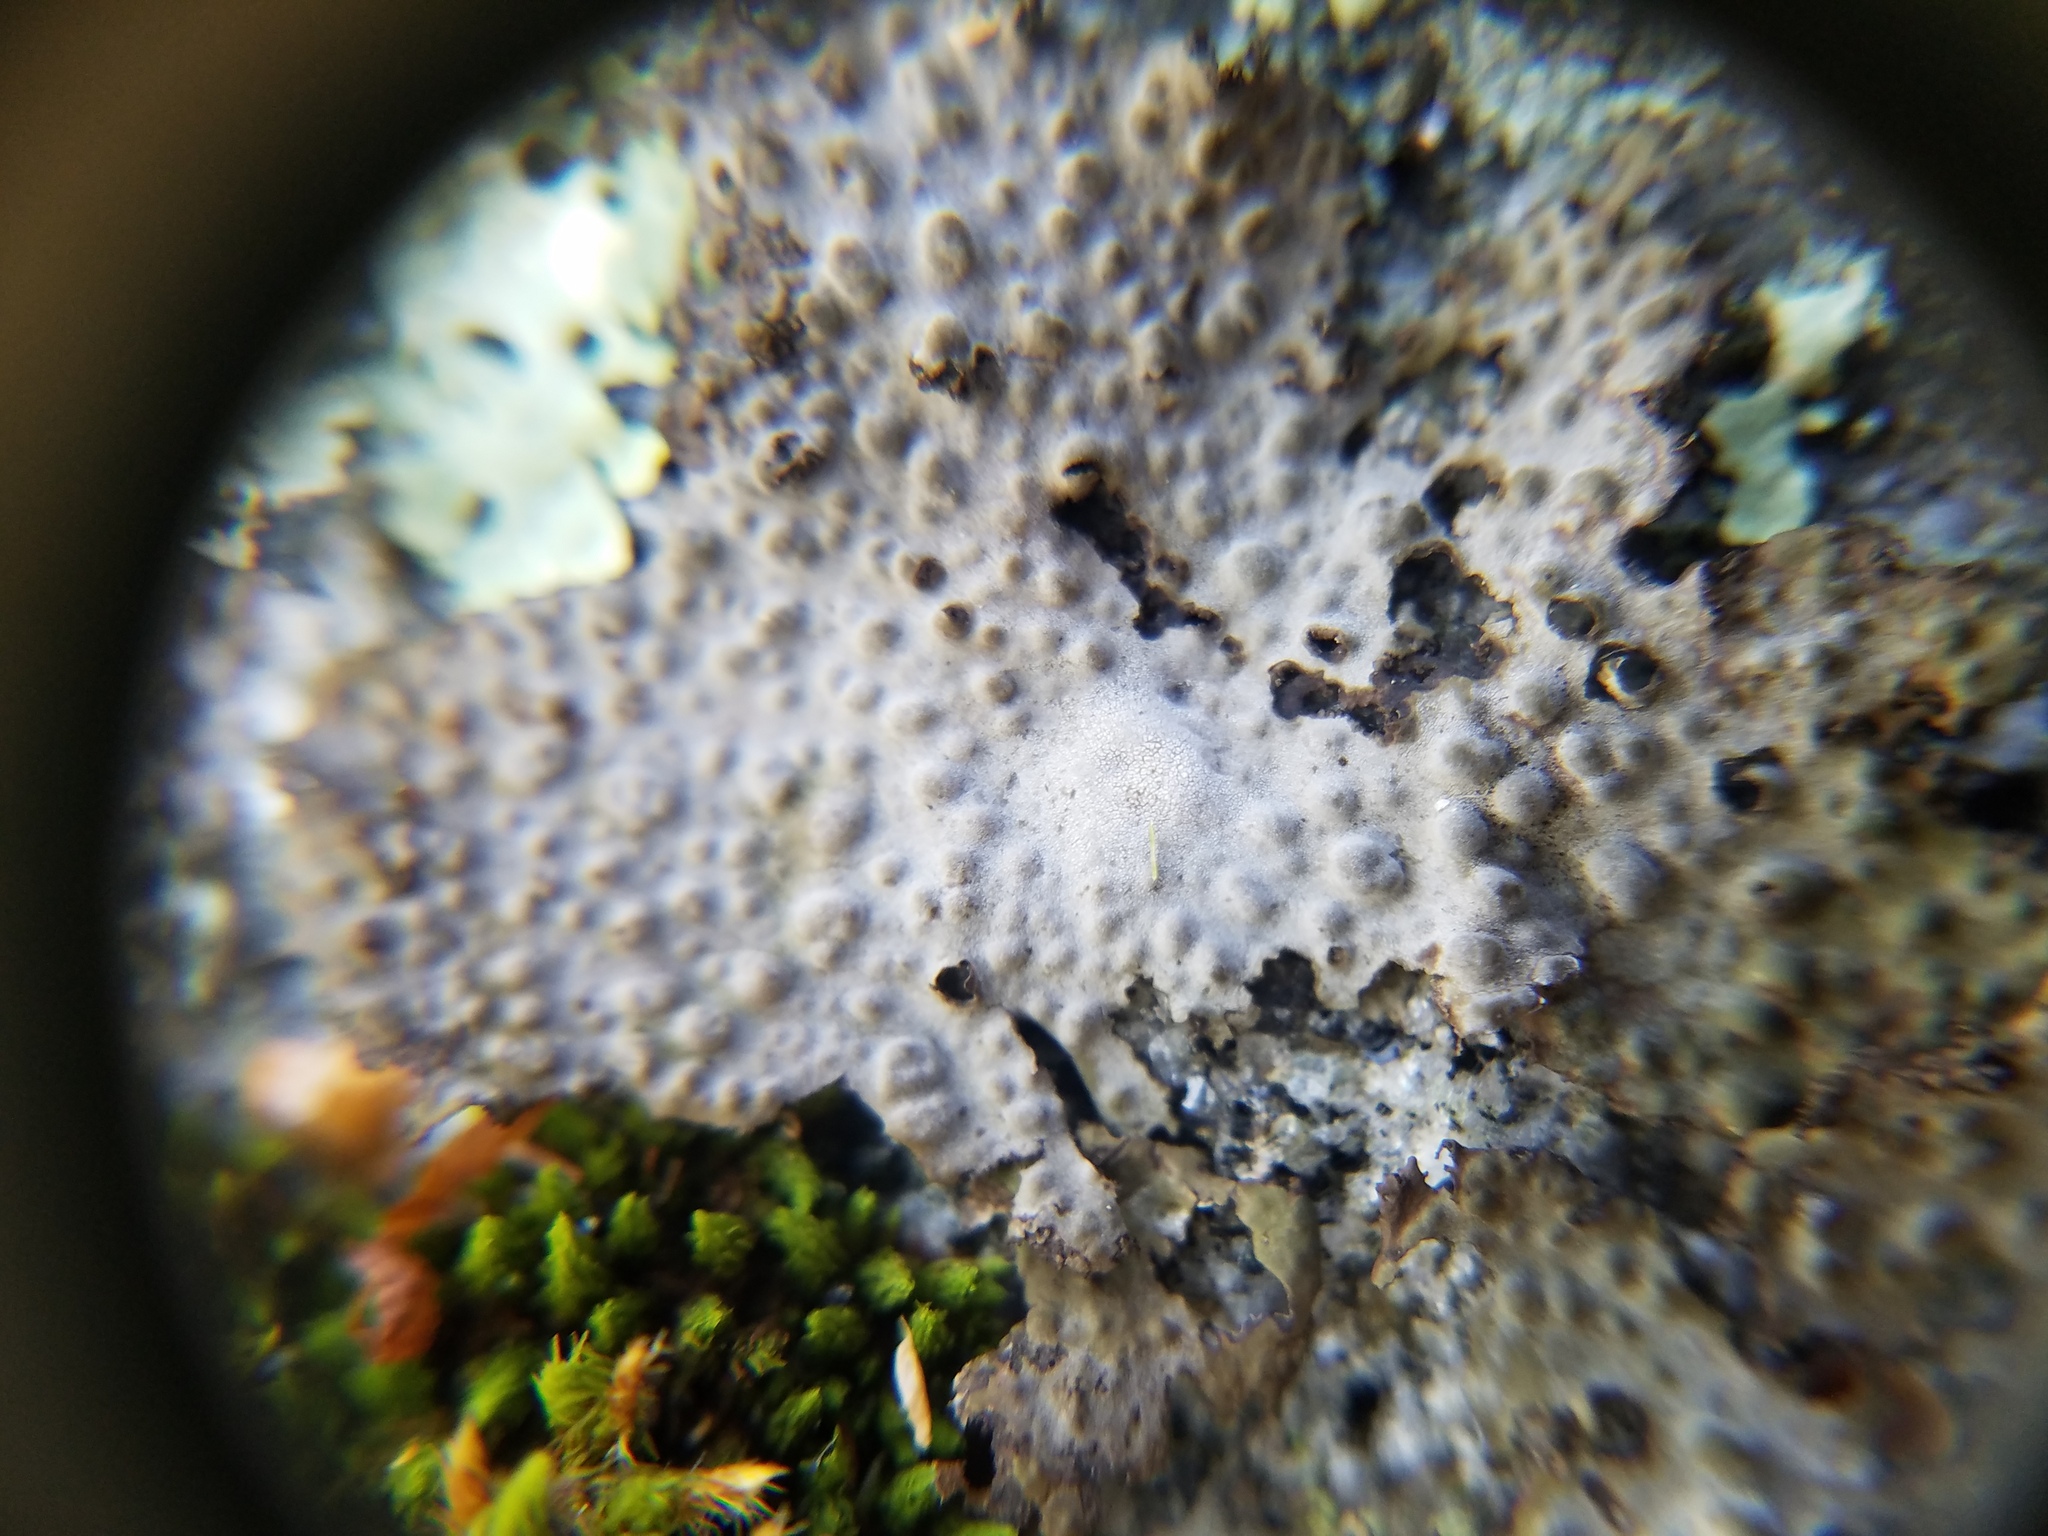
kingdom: Fungi
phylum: Ascomycota
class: Lecanoromycetes
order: Umbilicariales
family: Umbilicariaceae
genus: Lasallia
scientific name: Lasallia papulosa
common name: Common toadskin lichen
